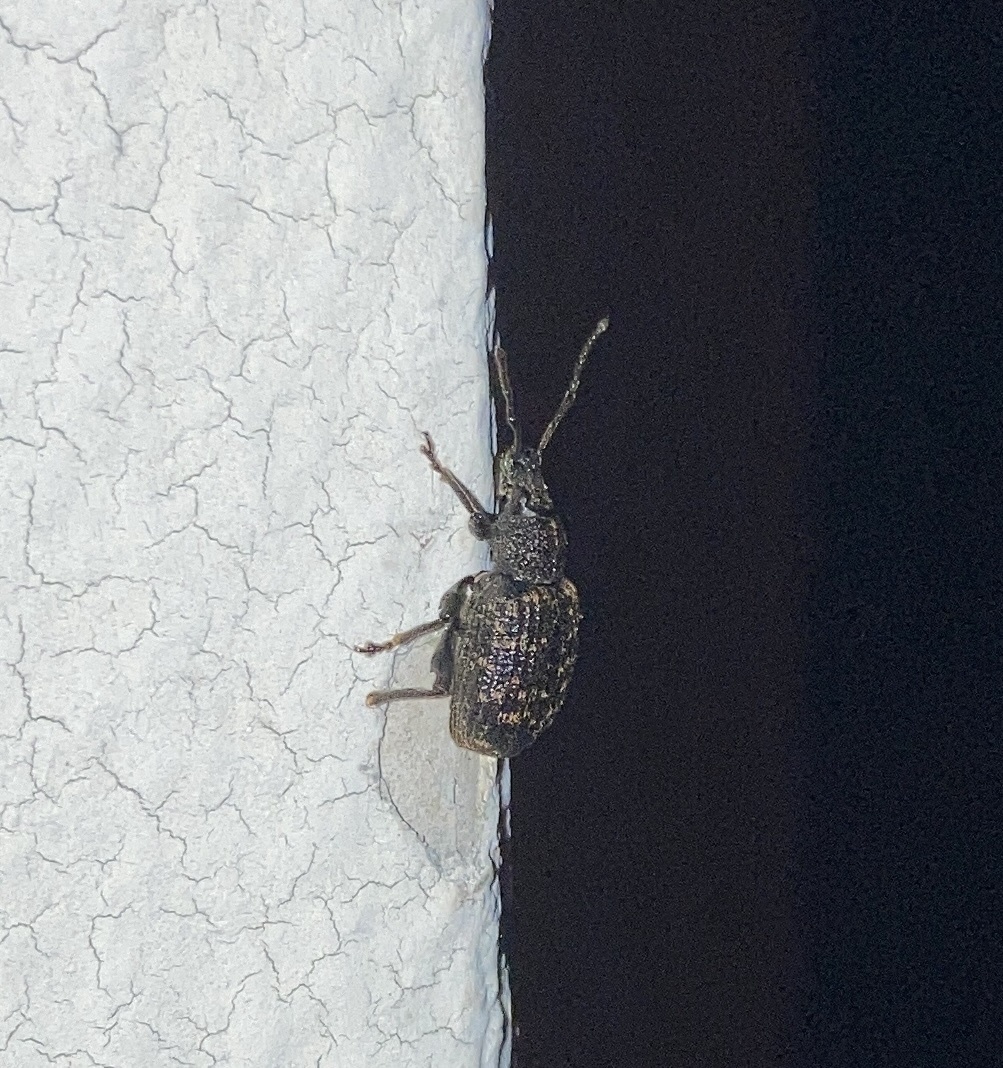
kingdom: Animalia
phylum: Arthropoda
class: Insecta
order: Coleoptera
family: Curculionidae
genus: Otiorhynchus
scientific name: Otiorhynchus sulcatus
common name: Black vine weevil
